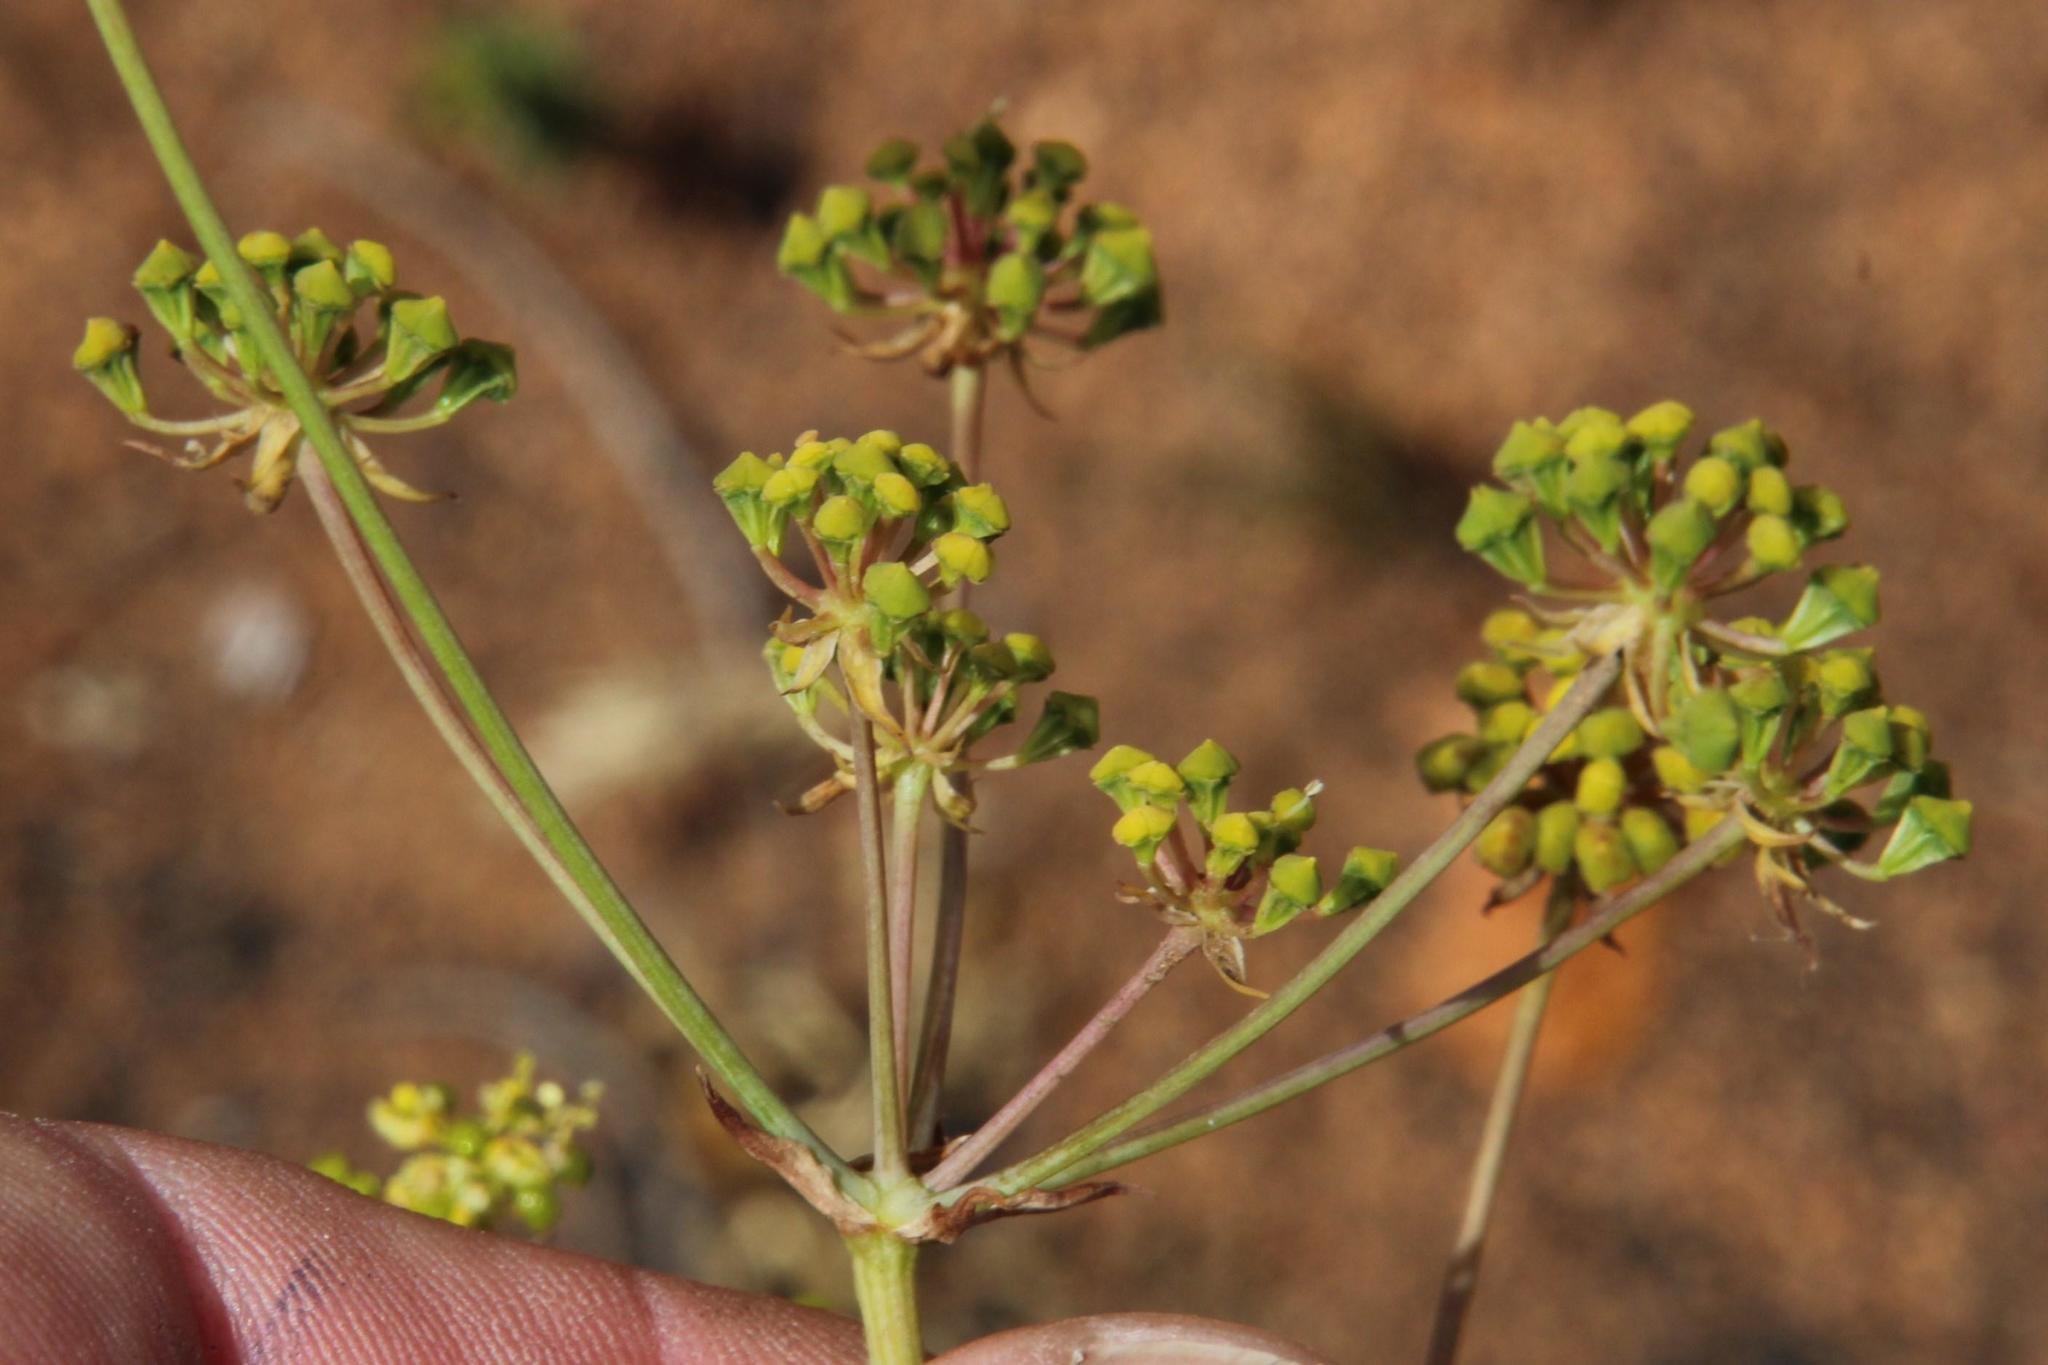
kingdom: Plantae
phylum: Tracheophyta
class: Magnoliopsida
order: Apiales
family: Apiaceae
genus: Annesorhiza
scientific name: Annesorhiza nuda
